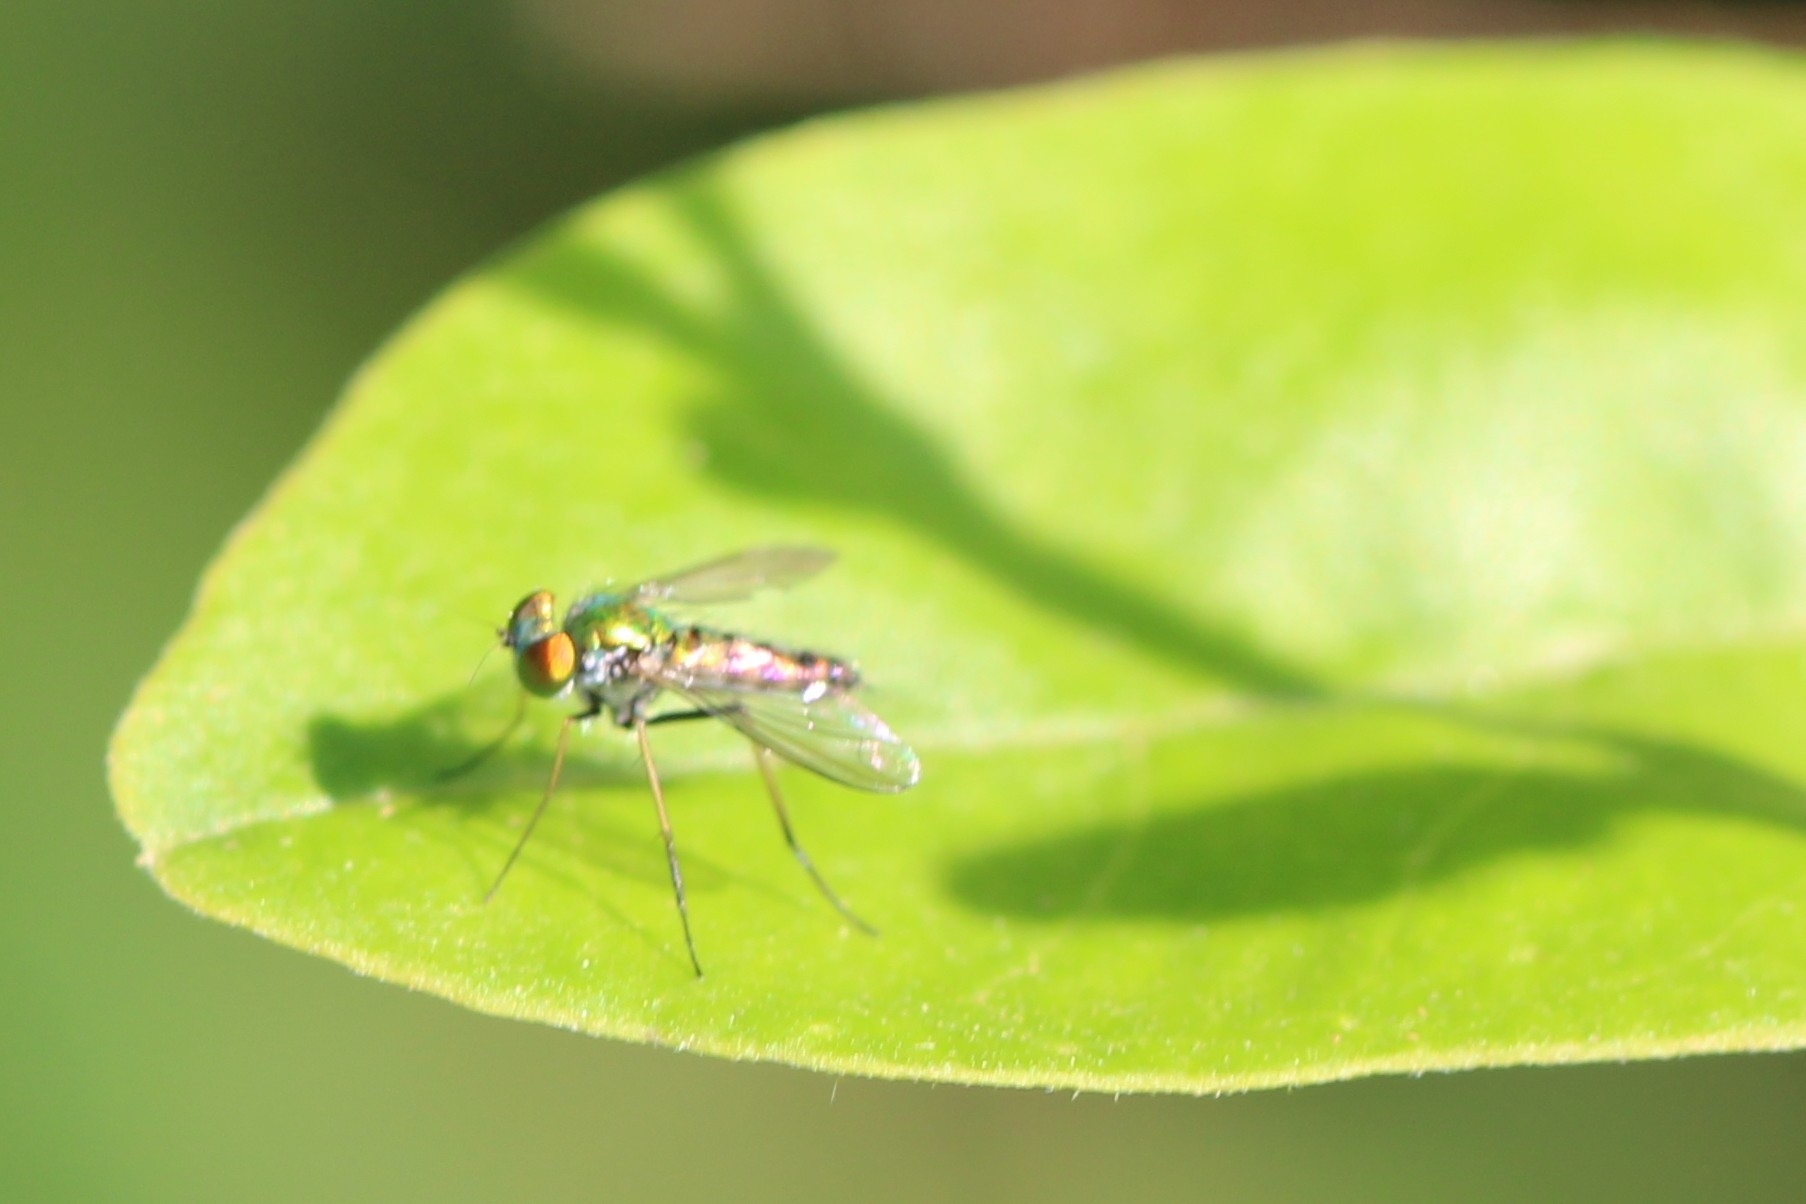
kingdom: Animalia
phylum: Arthropoda
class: Insecta
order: Diptera
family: Dolichopodidae
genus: Condylostylus
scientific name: Condylostylus caudatus
